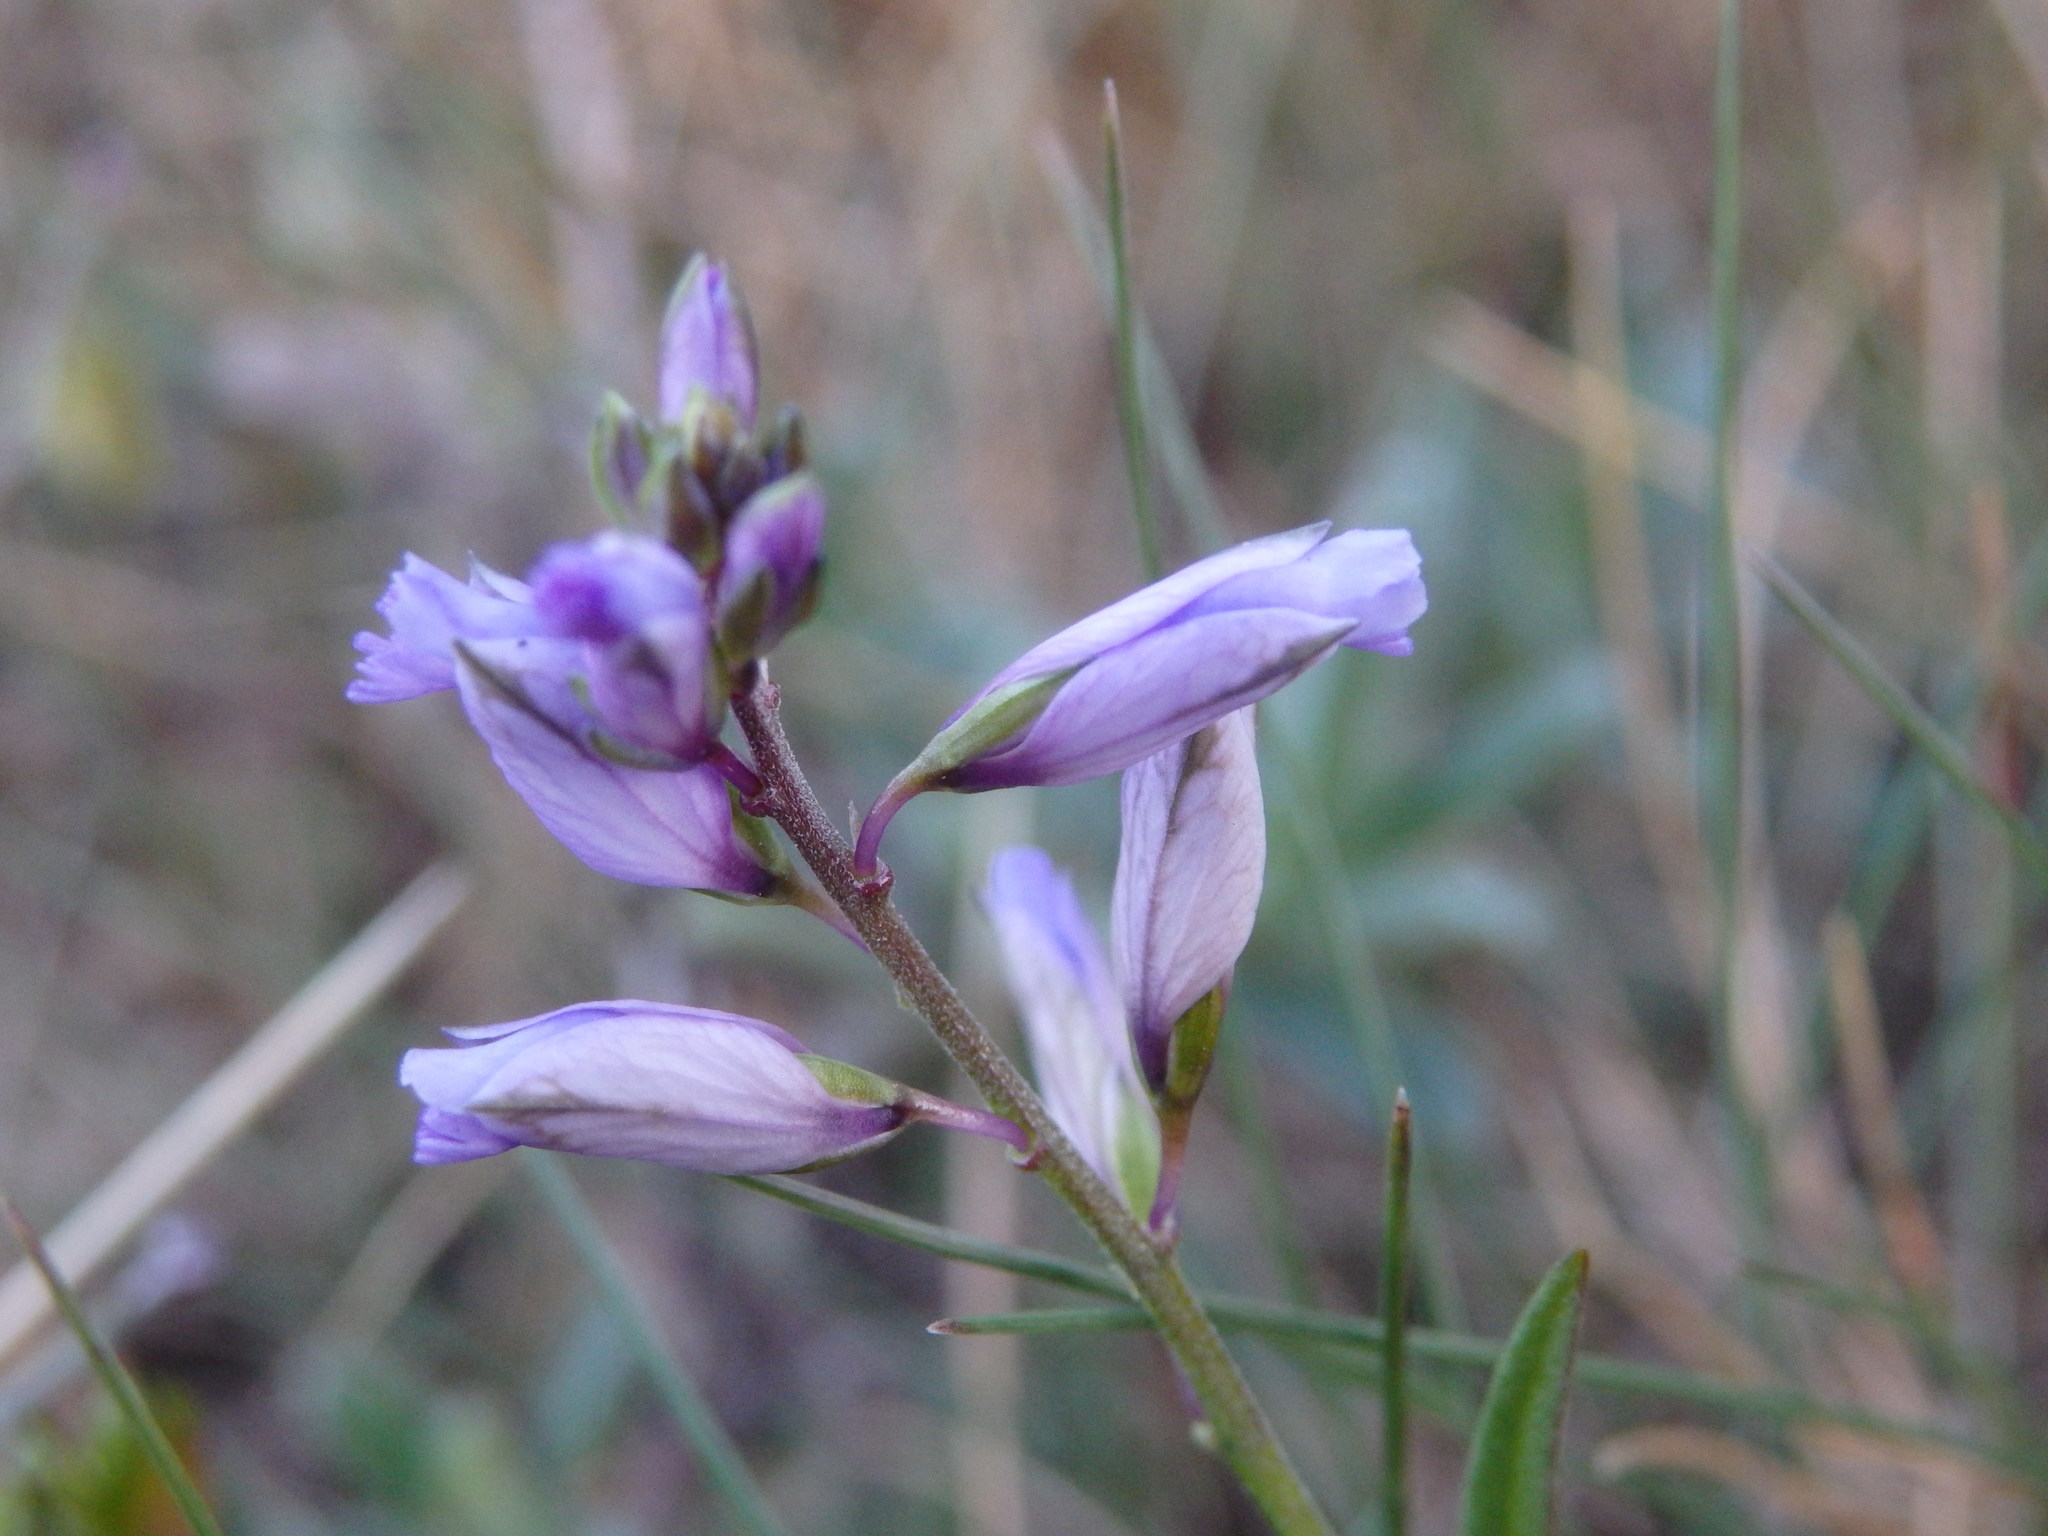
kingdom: Plantae
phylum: Tracheophyta
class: Magnoliopsida
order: Fabales
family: Polygalaceae
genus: Polygala
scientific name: Polygala vulgaris
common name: Common milkwort
